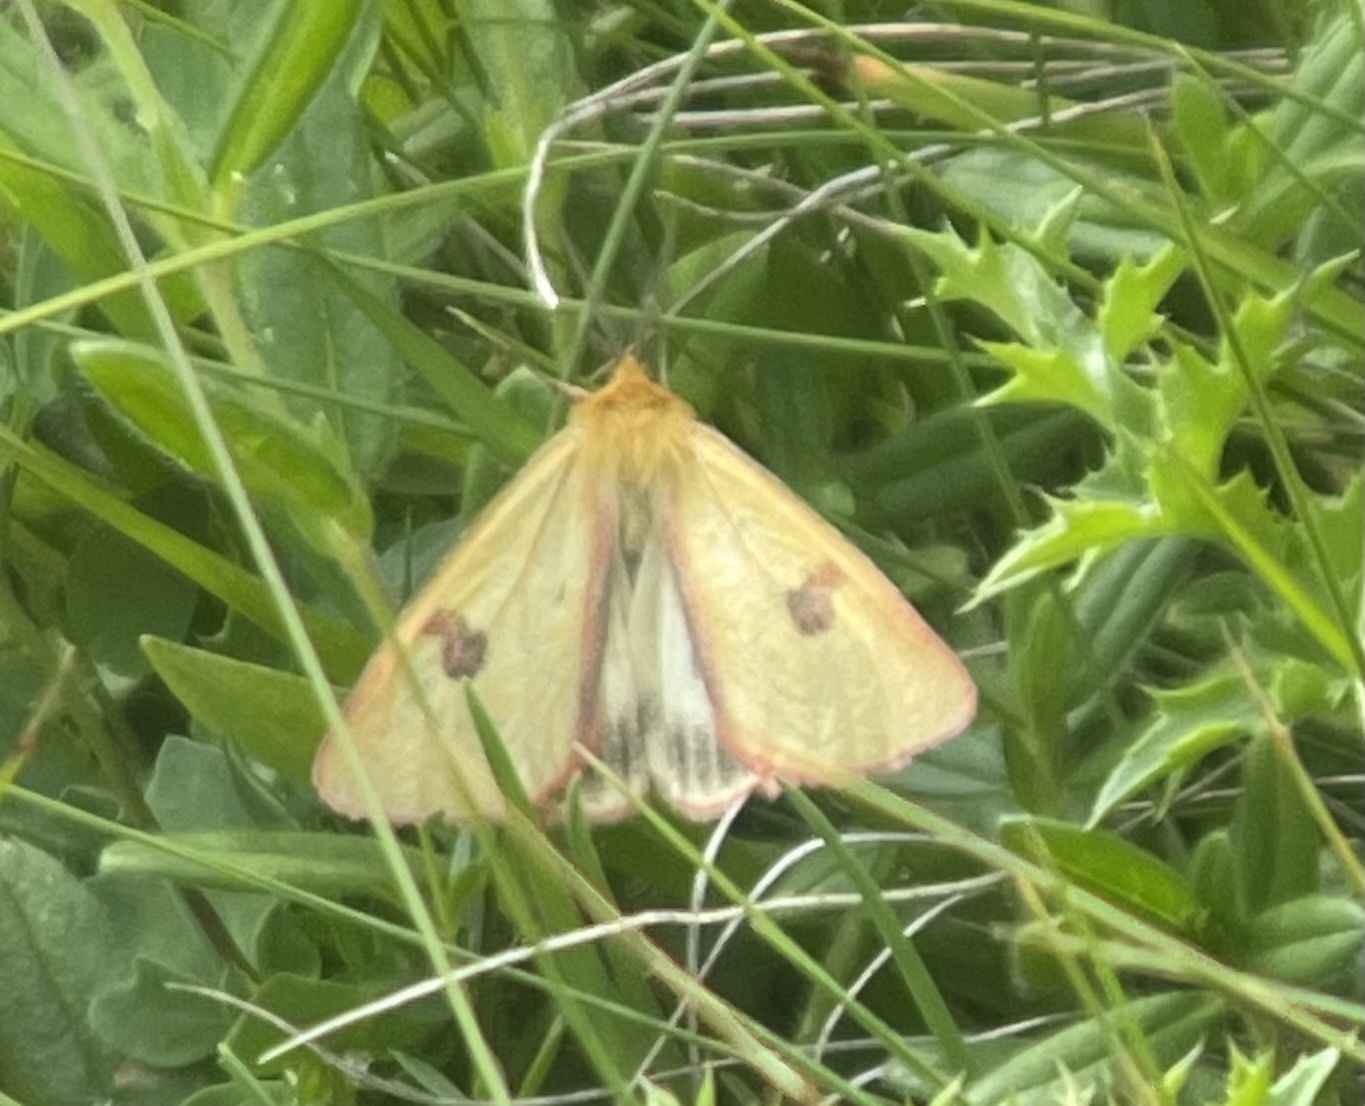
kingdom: Animalia
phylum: Arthropoda
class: Insecta
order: Lepidoptera
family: Erebidae
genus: Diacrisia
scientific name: Diacrisia sannio
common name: Clouded buff
